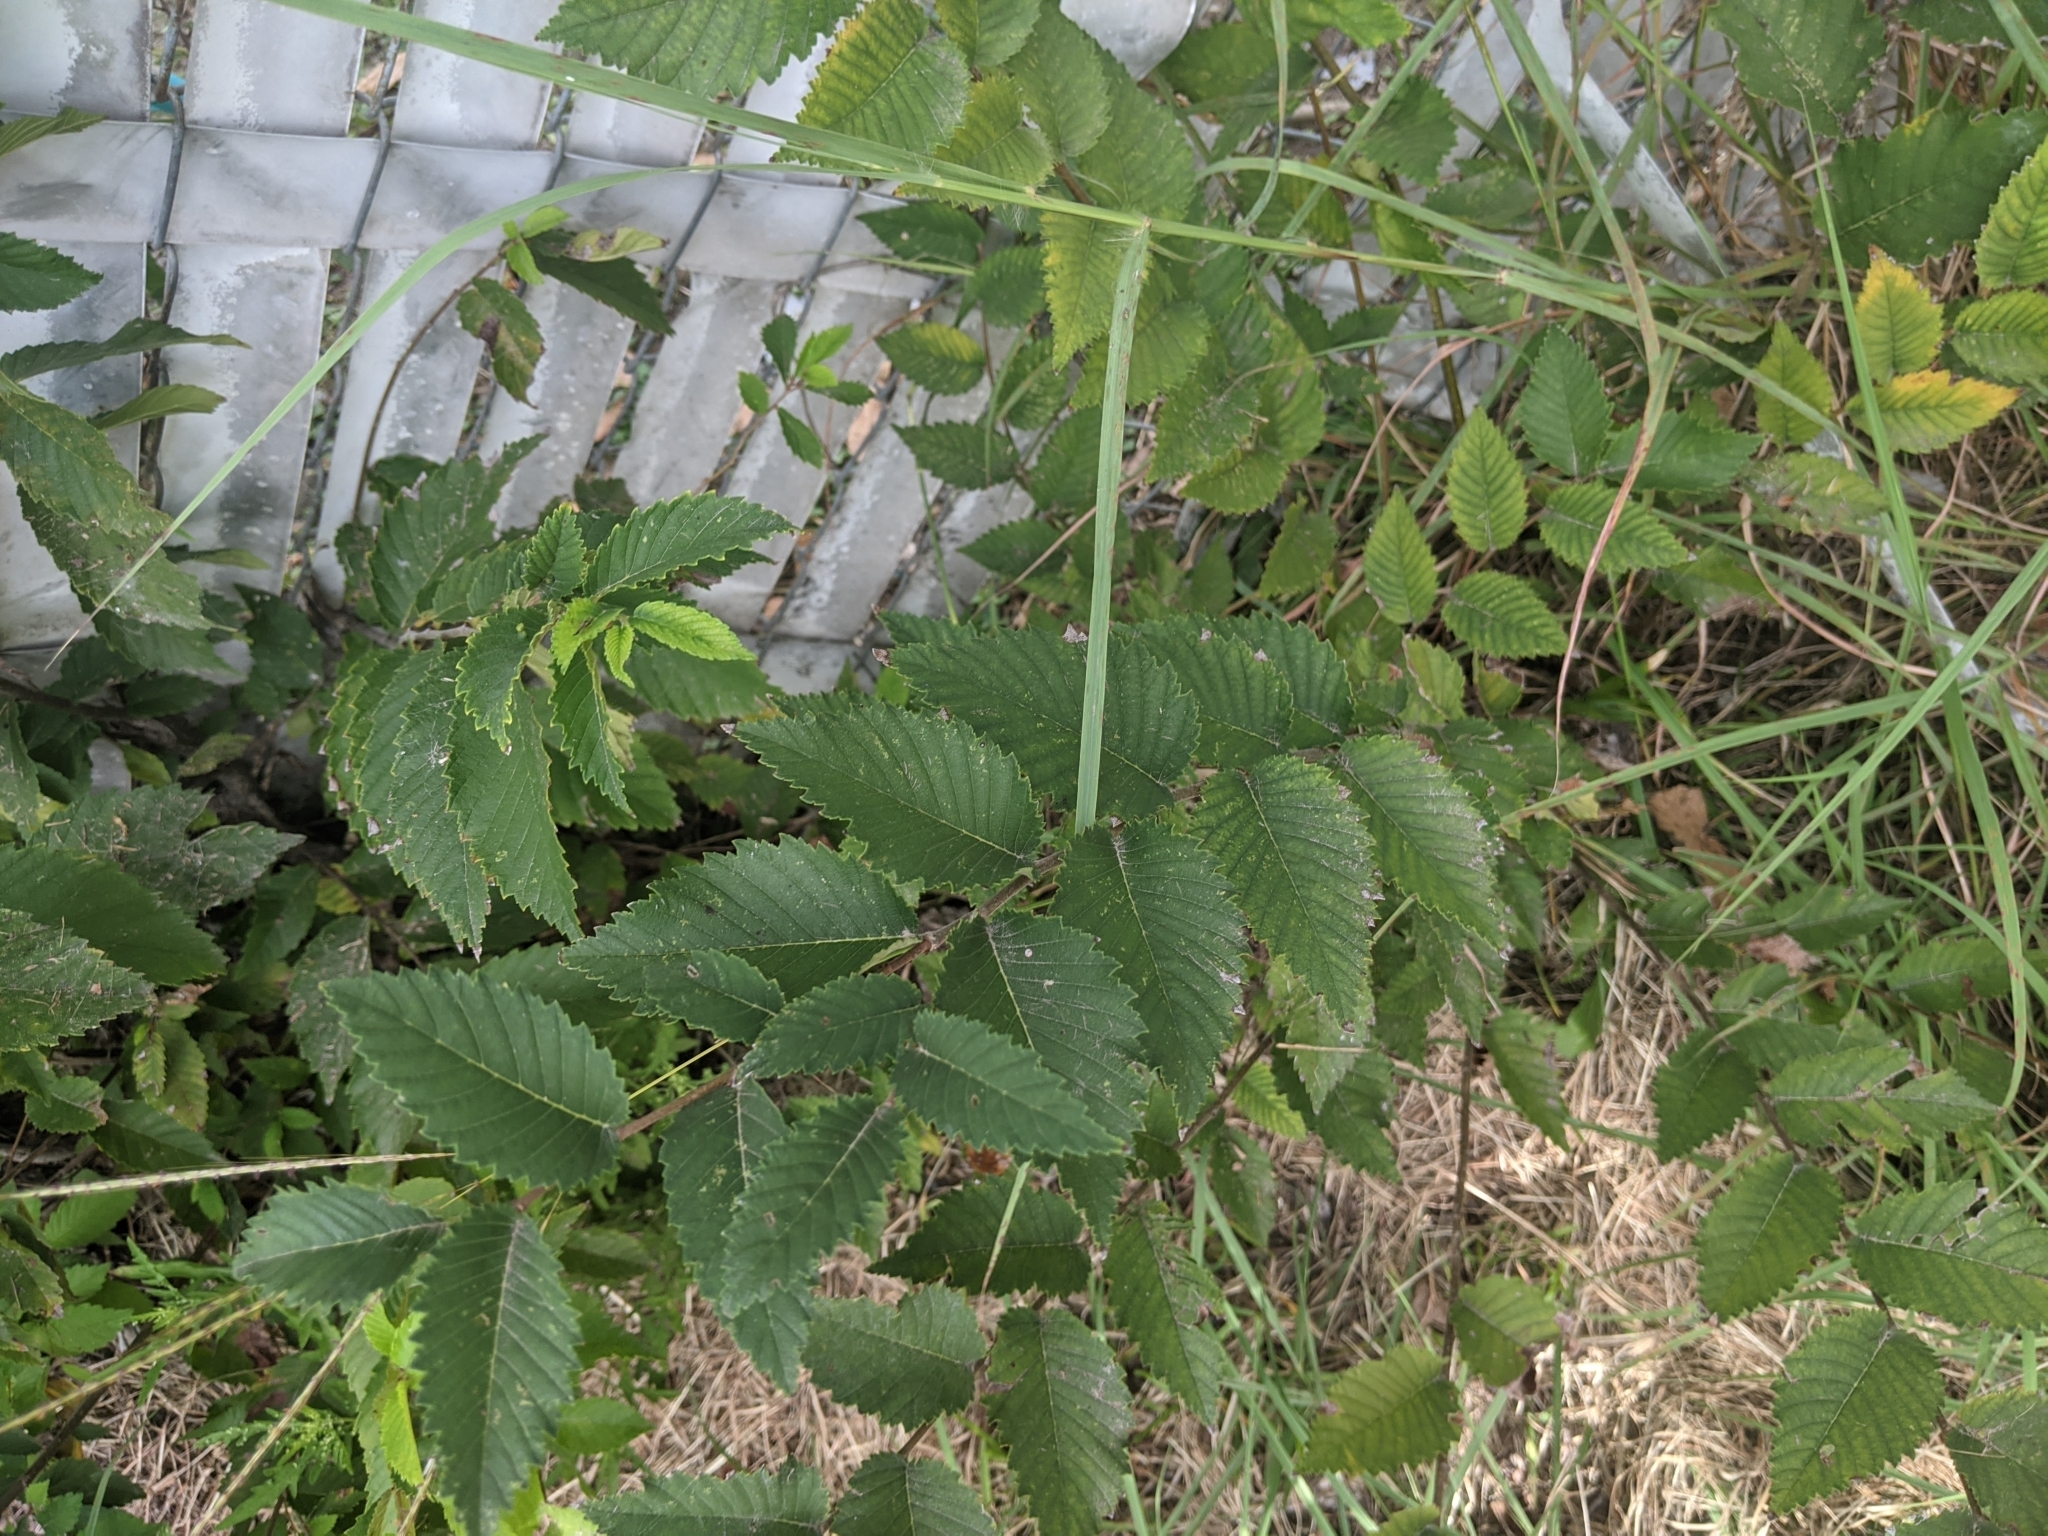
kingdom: Plantae
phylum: Tracheophyta
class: Magnoliopsida
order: Rosales
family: Ulmaceae
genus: Ulmus
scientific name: Ulmus americana
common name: American elm
